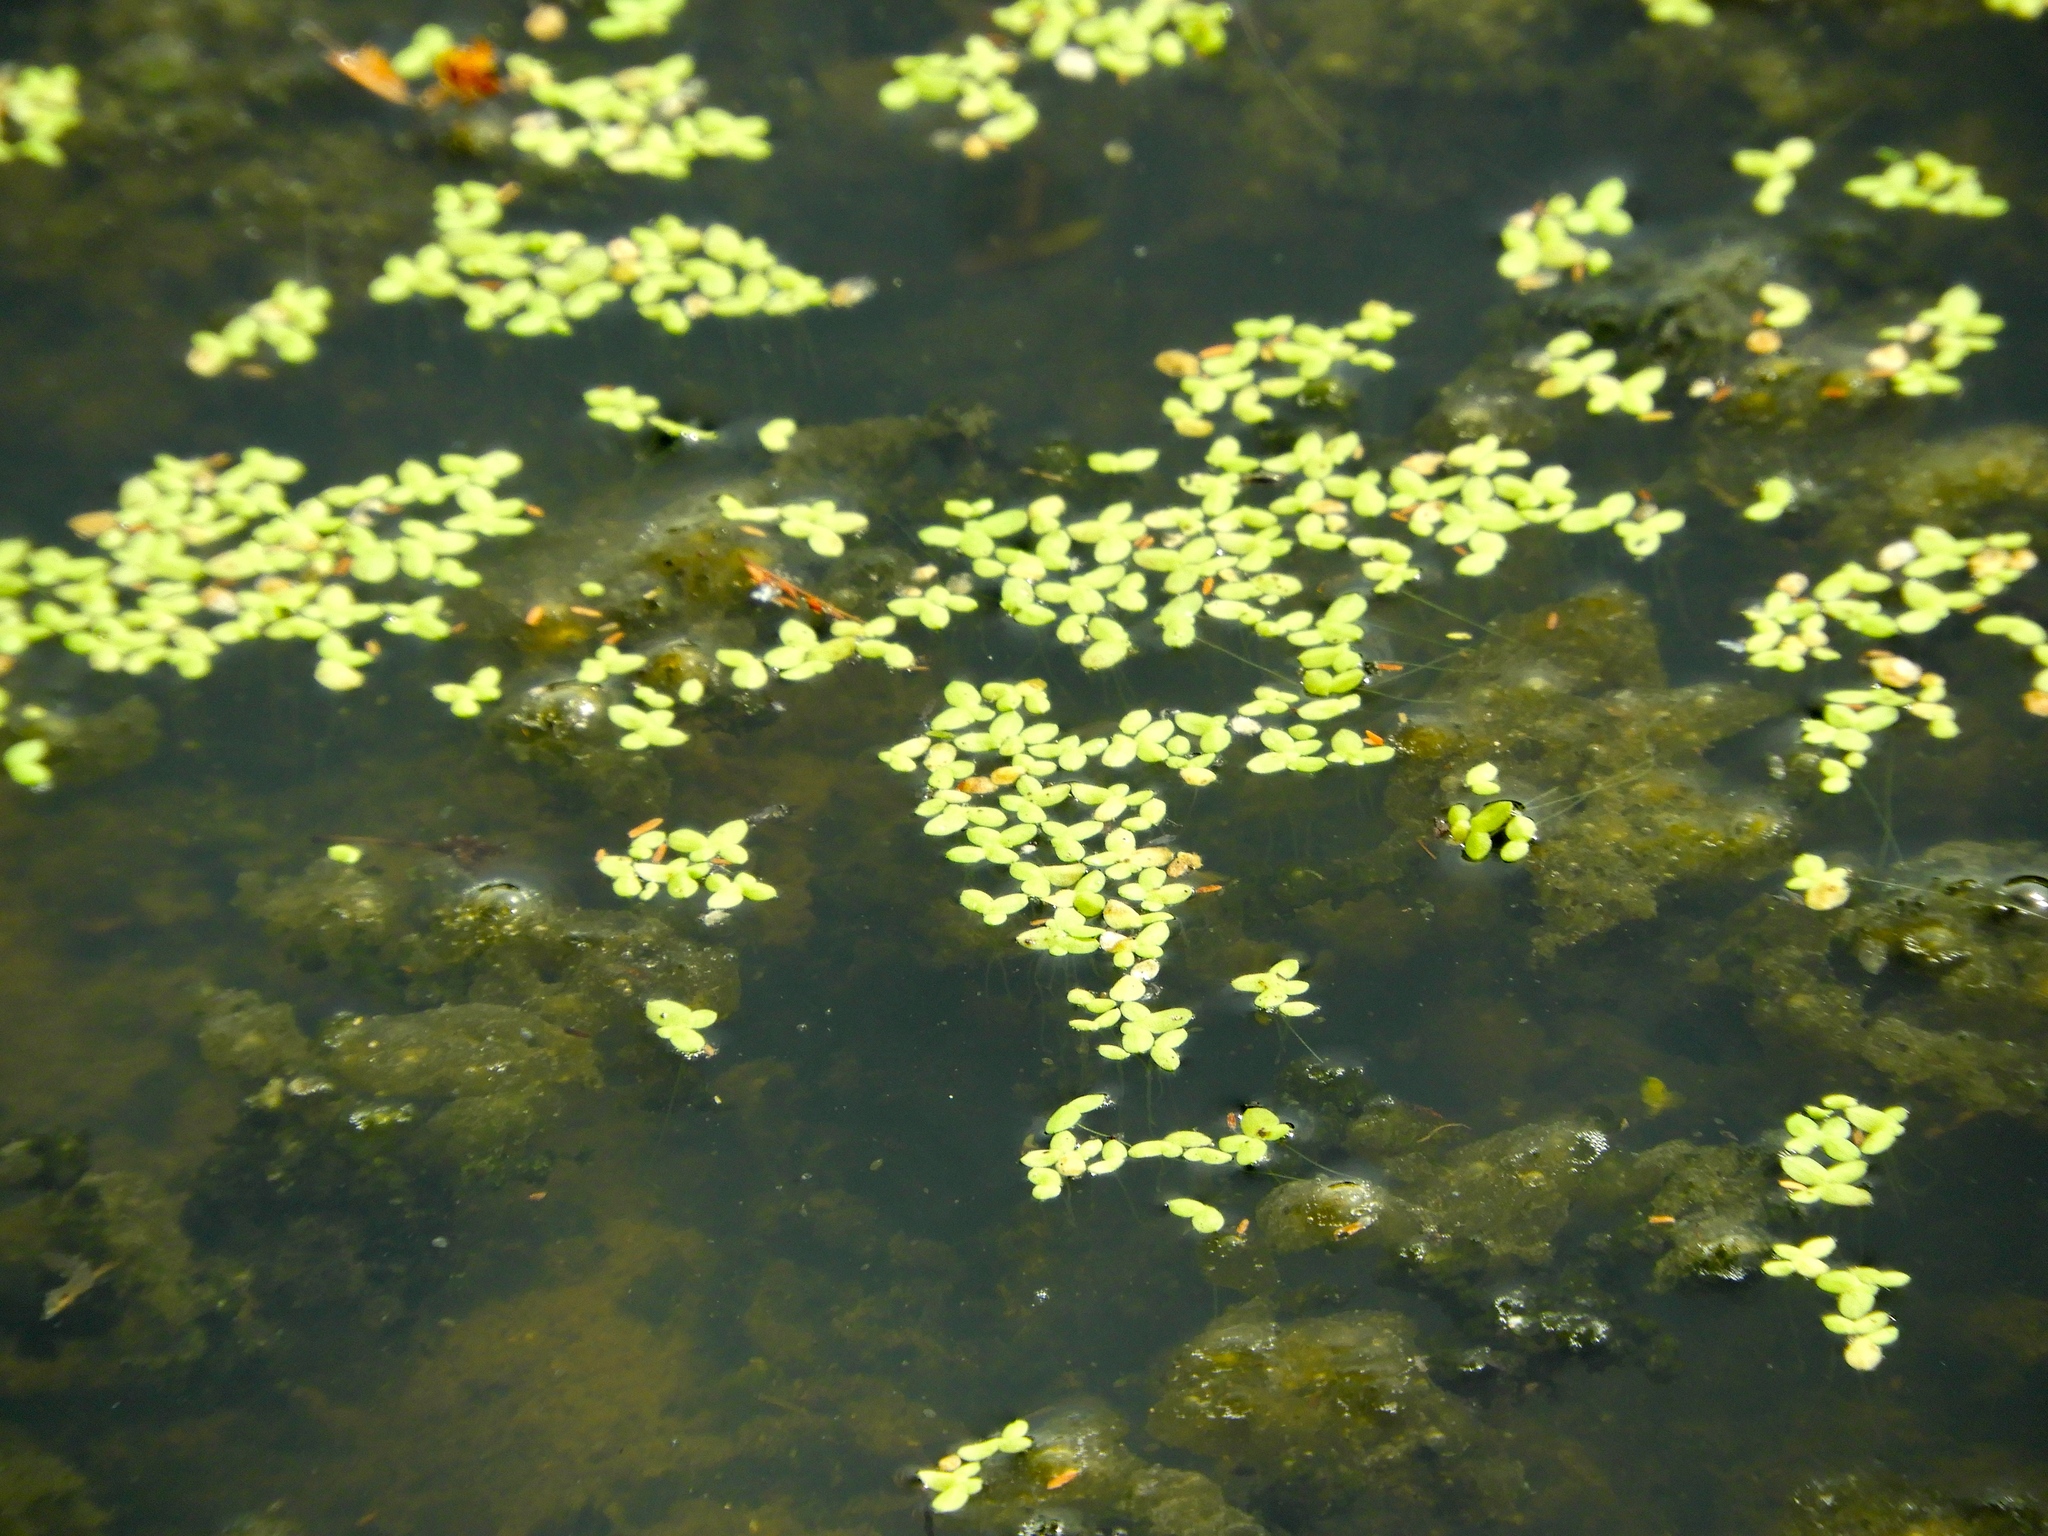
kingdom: Plantae
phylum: Tracheophyta
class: Liliopsida
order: Alismatales
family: Araceae
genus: Spirodela
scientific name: Spirodela polyrhiza
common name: Great duckweed
